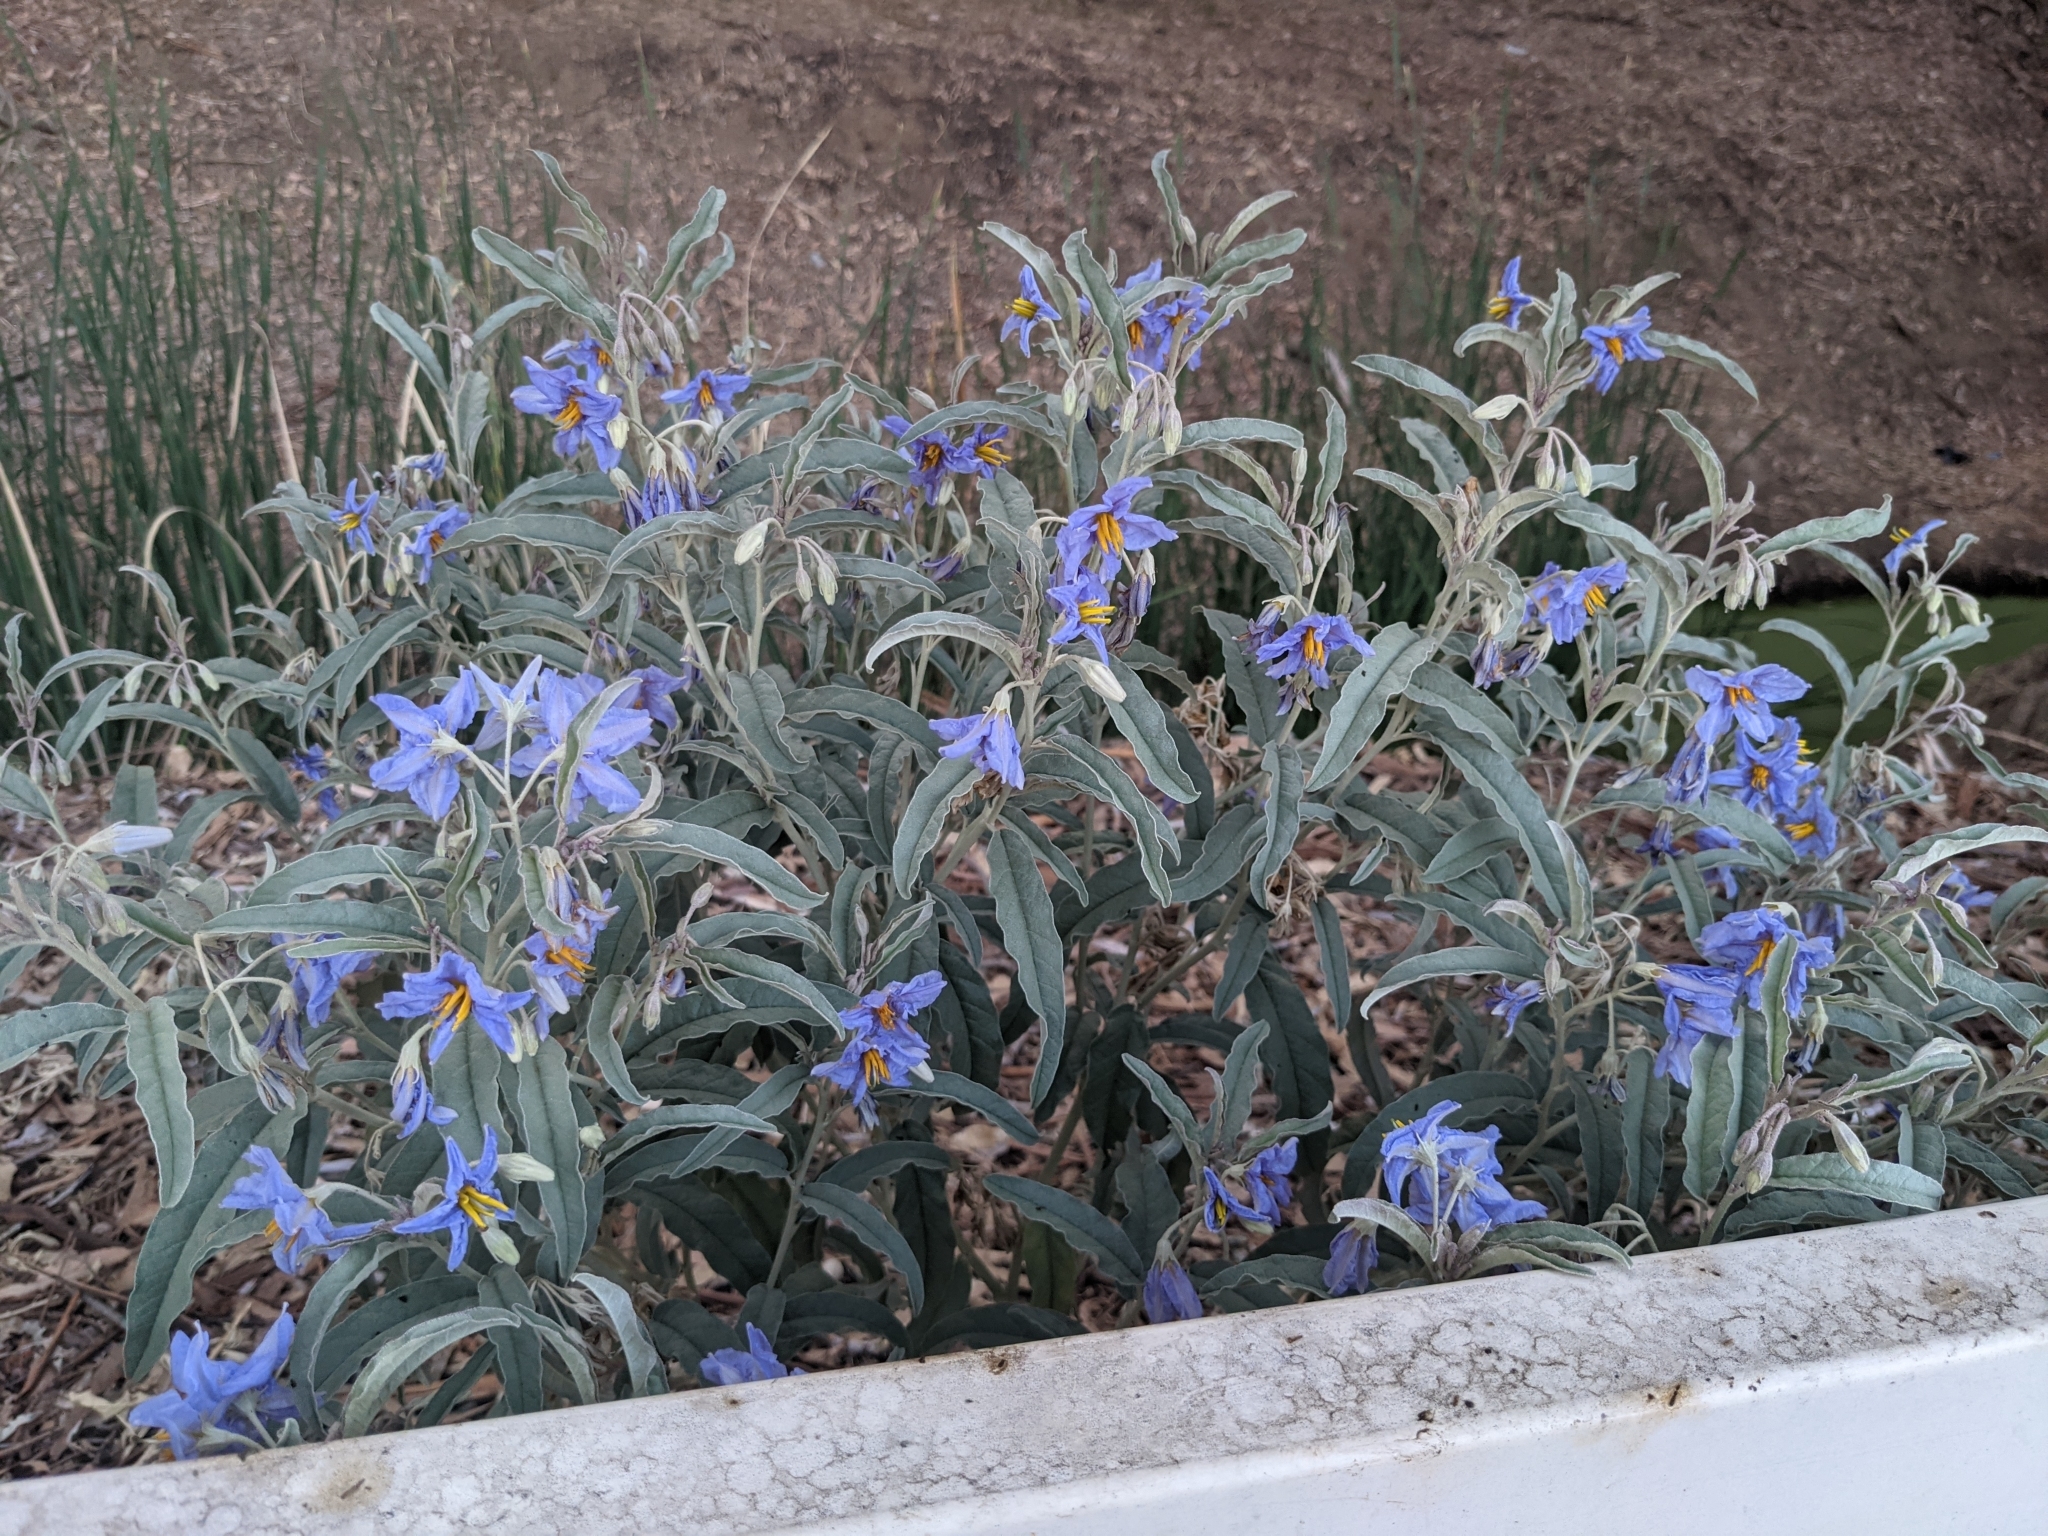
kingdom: Plantae
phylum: Tracheophyta
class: Magnoliopsida
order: Solanales
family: Solanaceae
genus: Solanum
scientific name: Solanum elaeagnifolium
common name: Silverleaf nightshade
